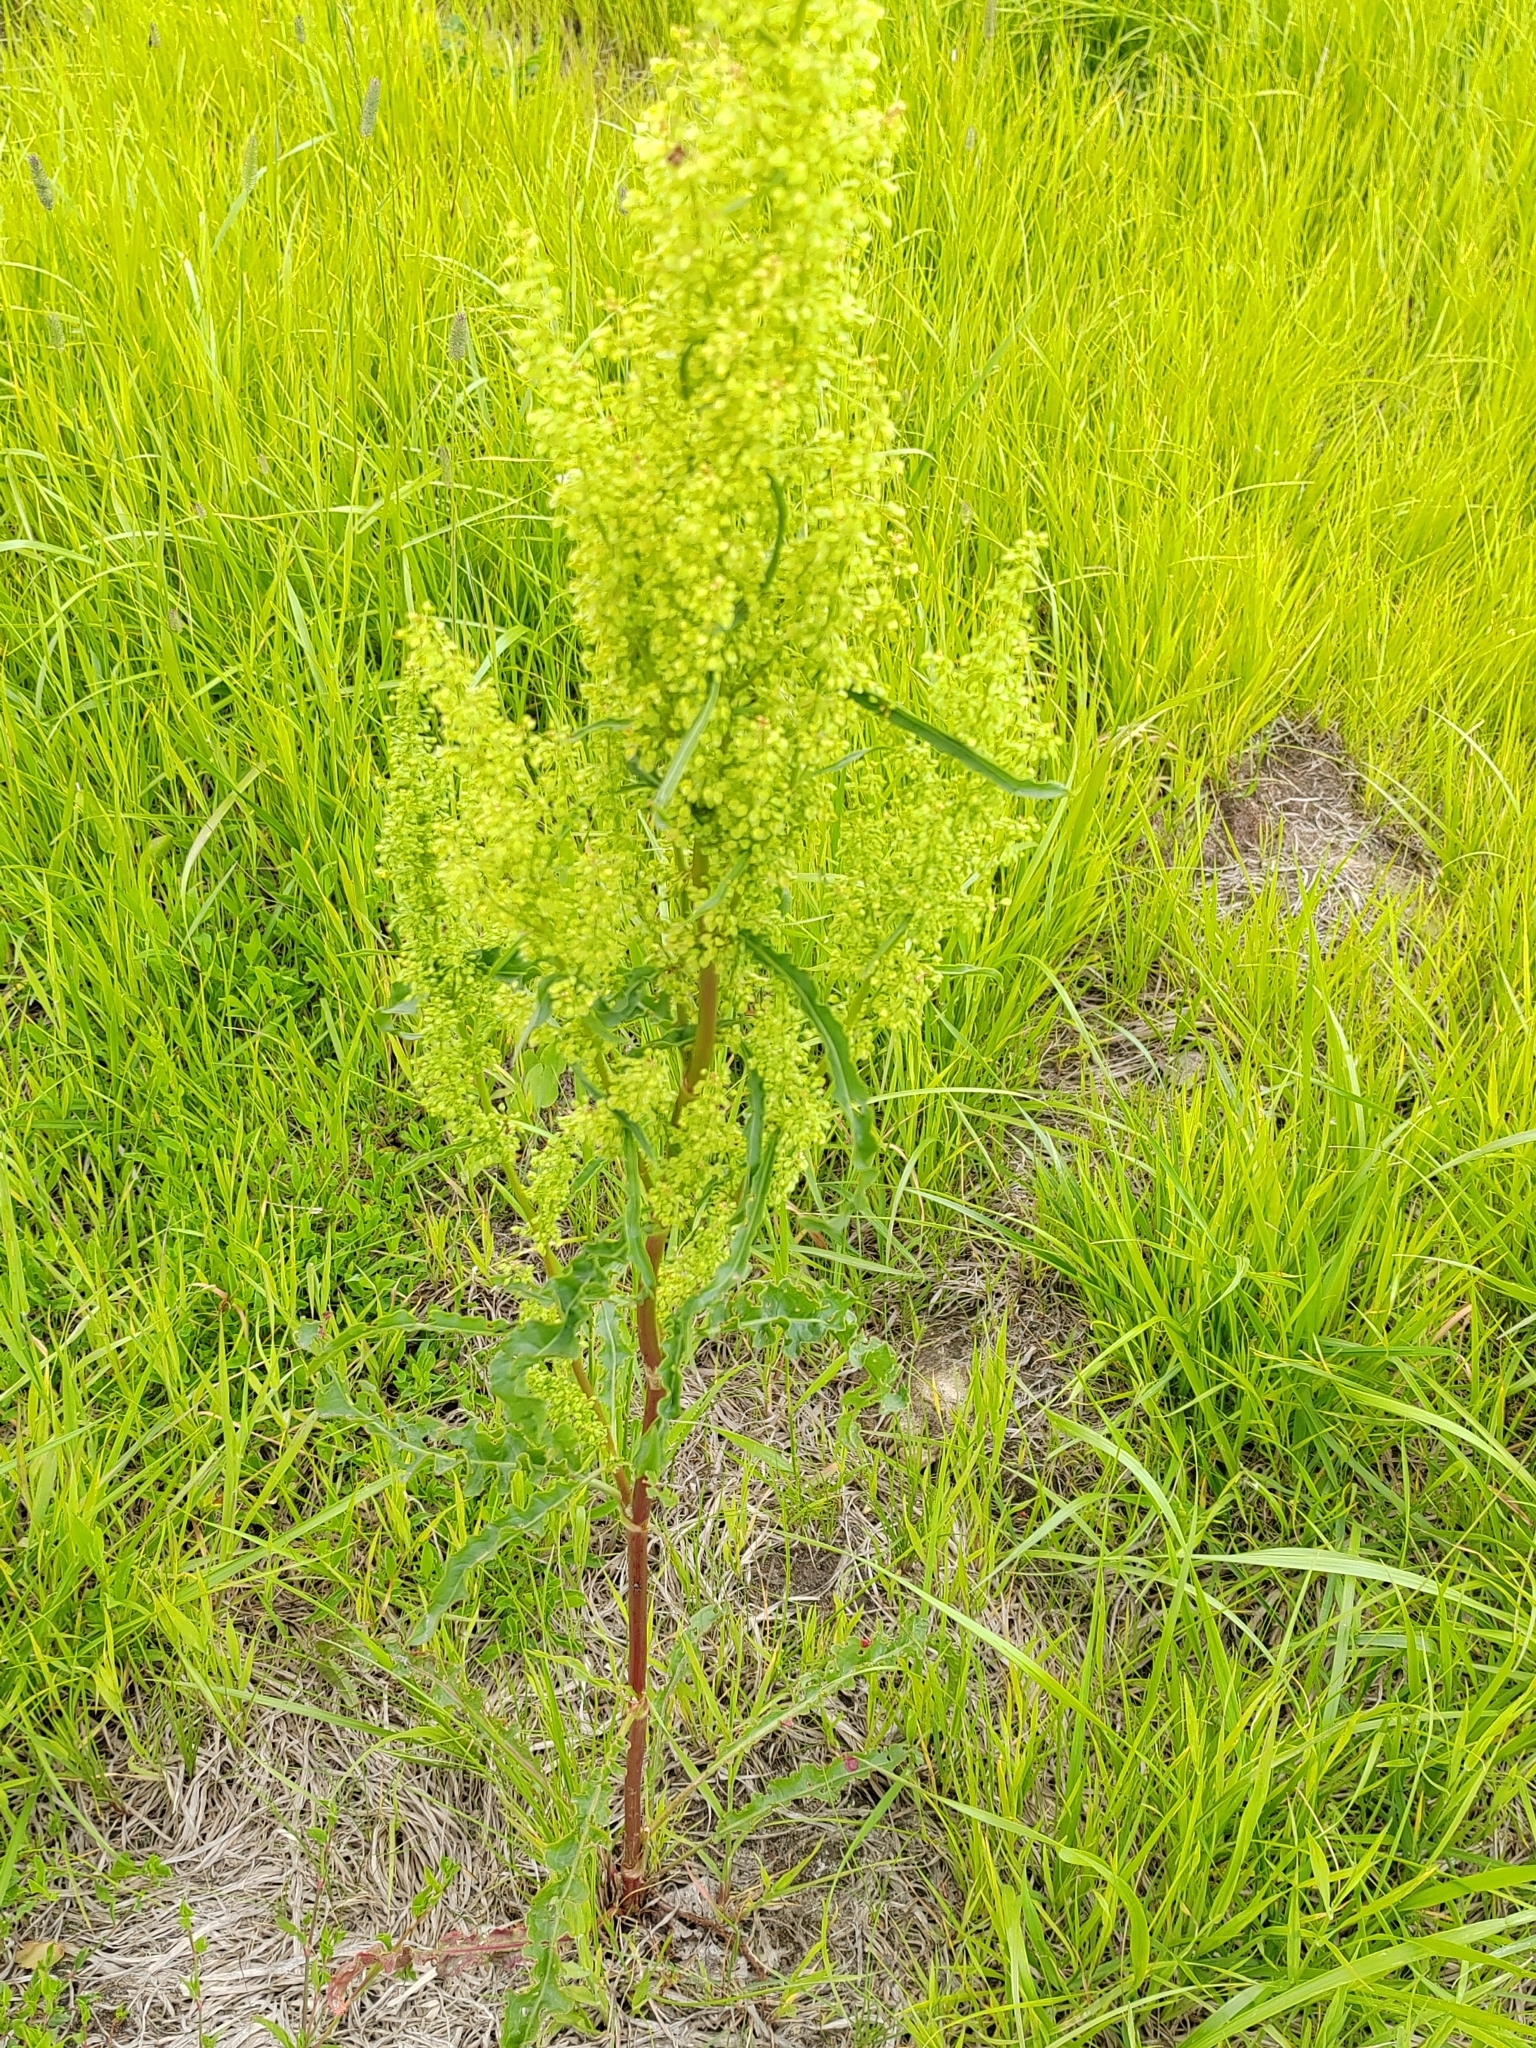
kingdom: Plantae
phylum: Tracheophyta
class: Magnoliopsida
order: Caryophyllales
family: Polygonaceae
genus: Rumex
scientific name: Rumex pseudonatronatus
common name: Field dock
